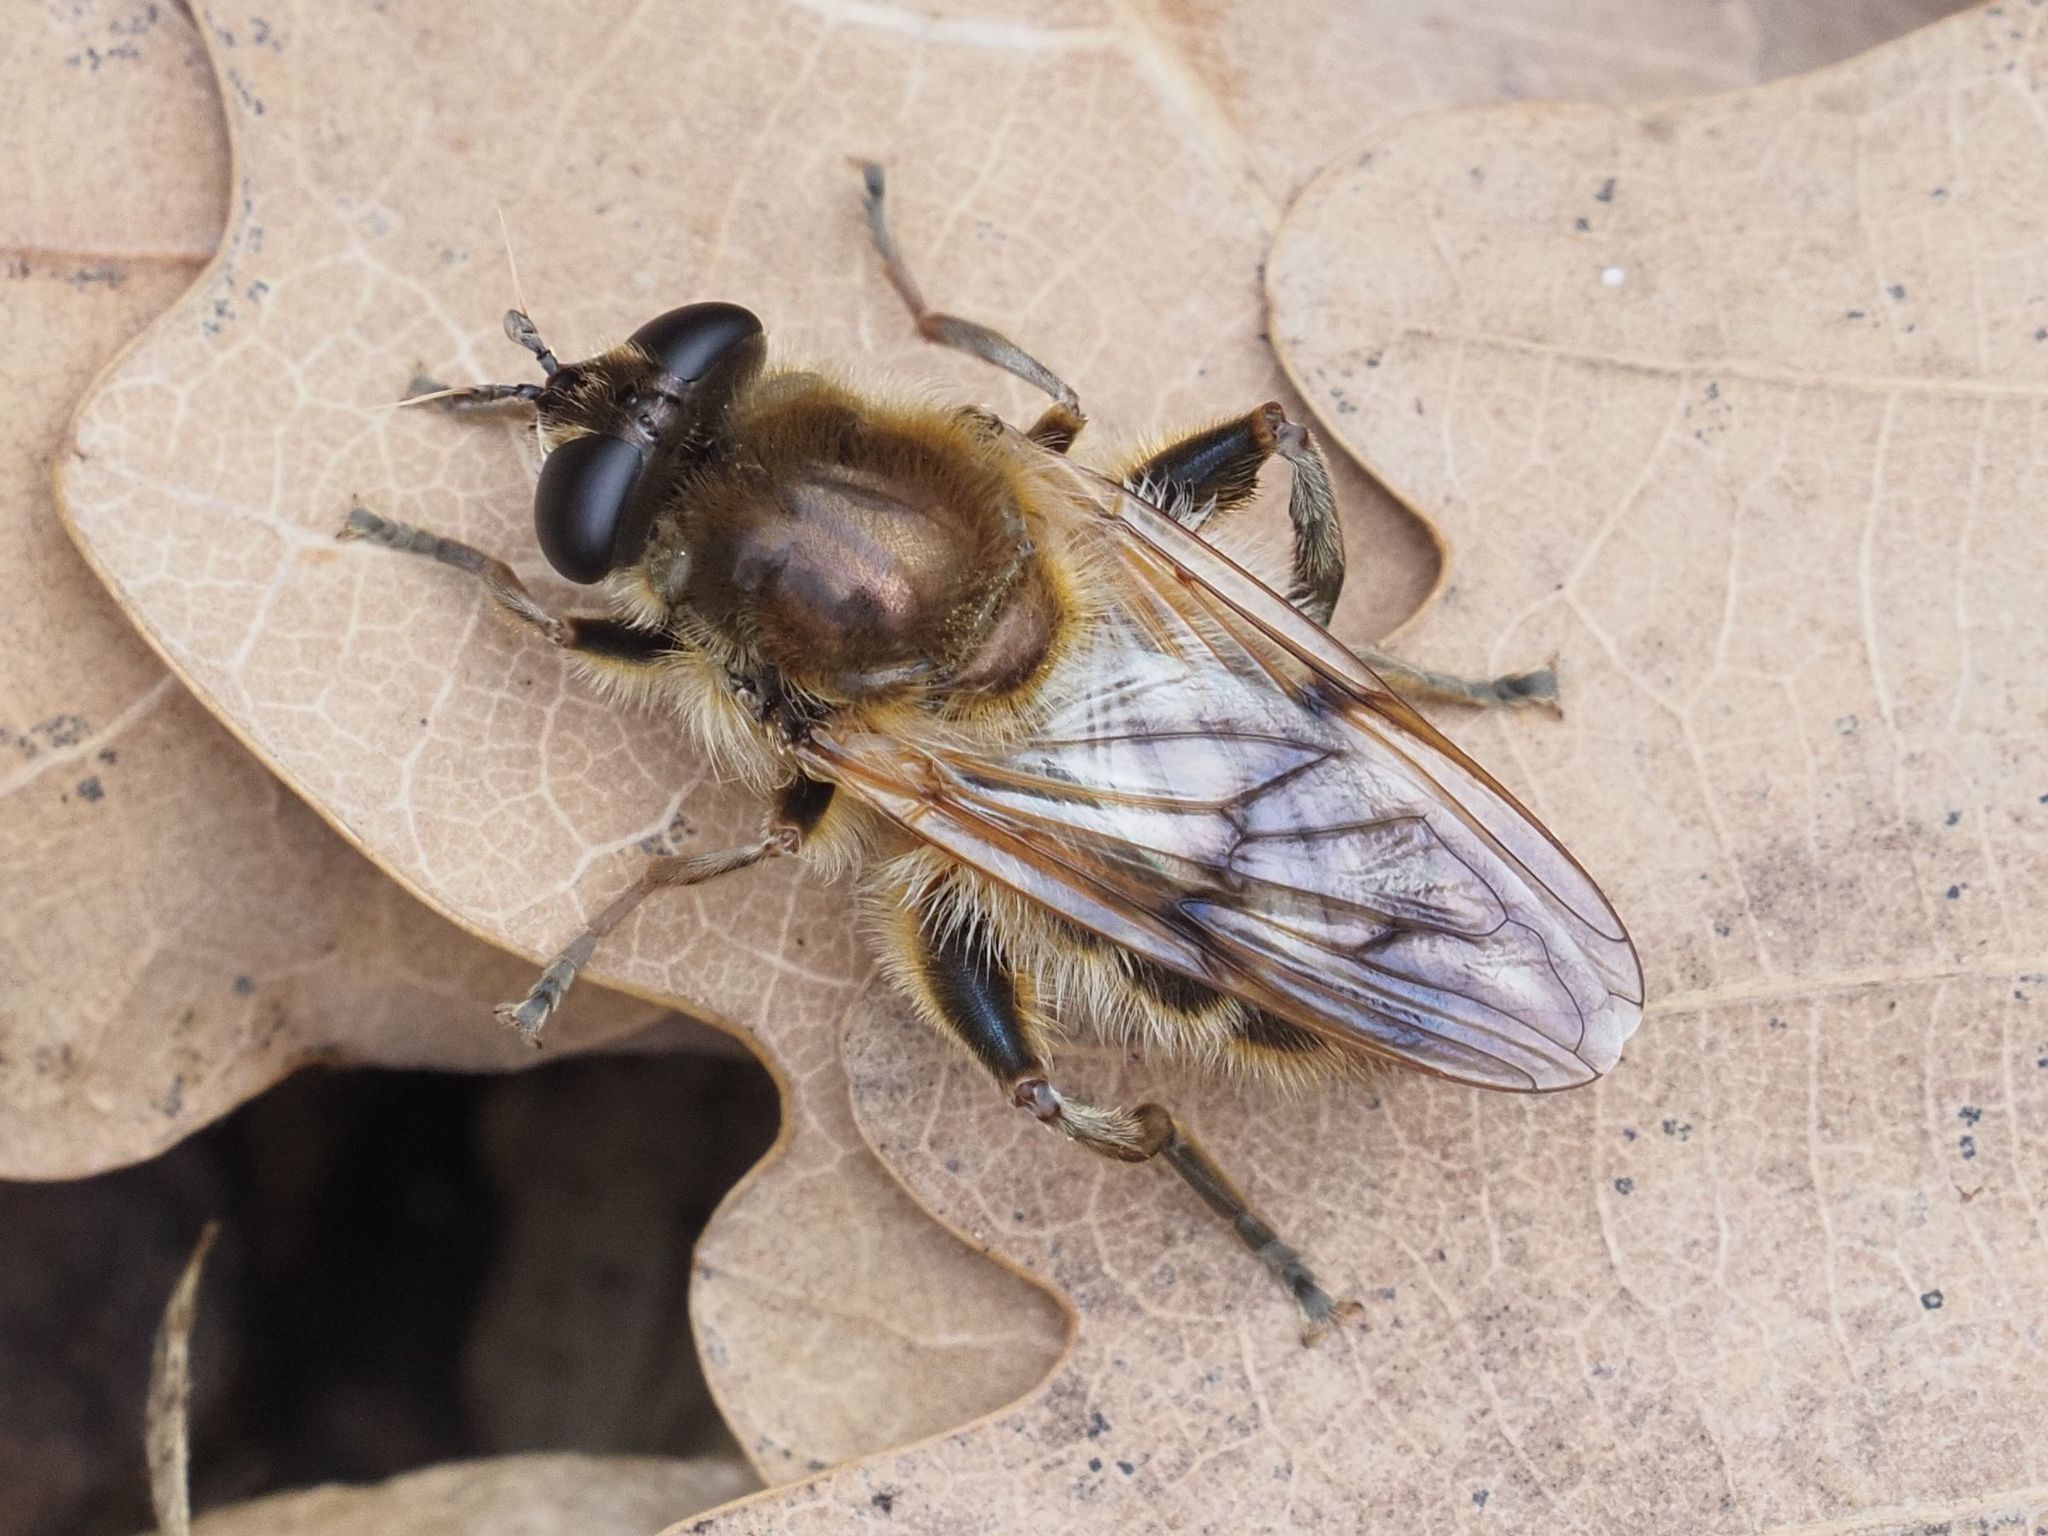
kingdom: Animalia
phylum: Arthropoda
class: Insecta
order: Diptera
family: Syrphidae
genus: Brachypalpus
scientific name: Brachypalpus valgus
